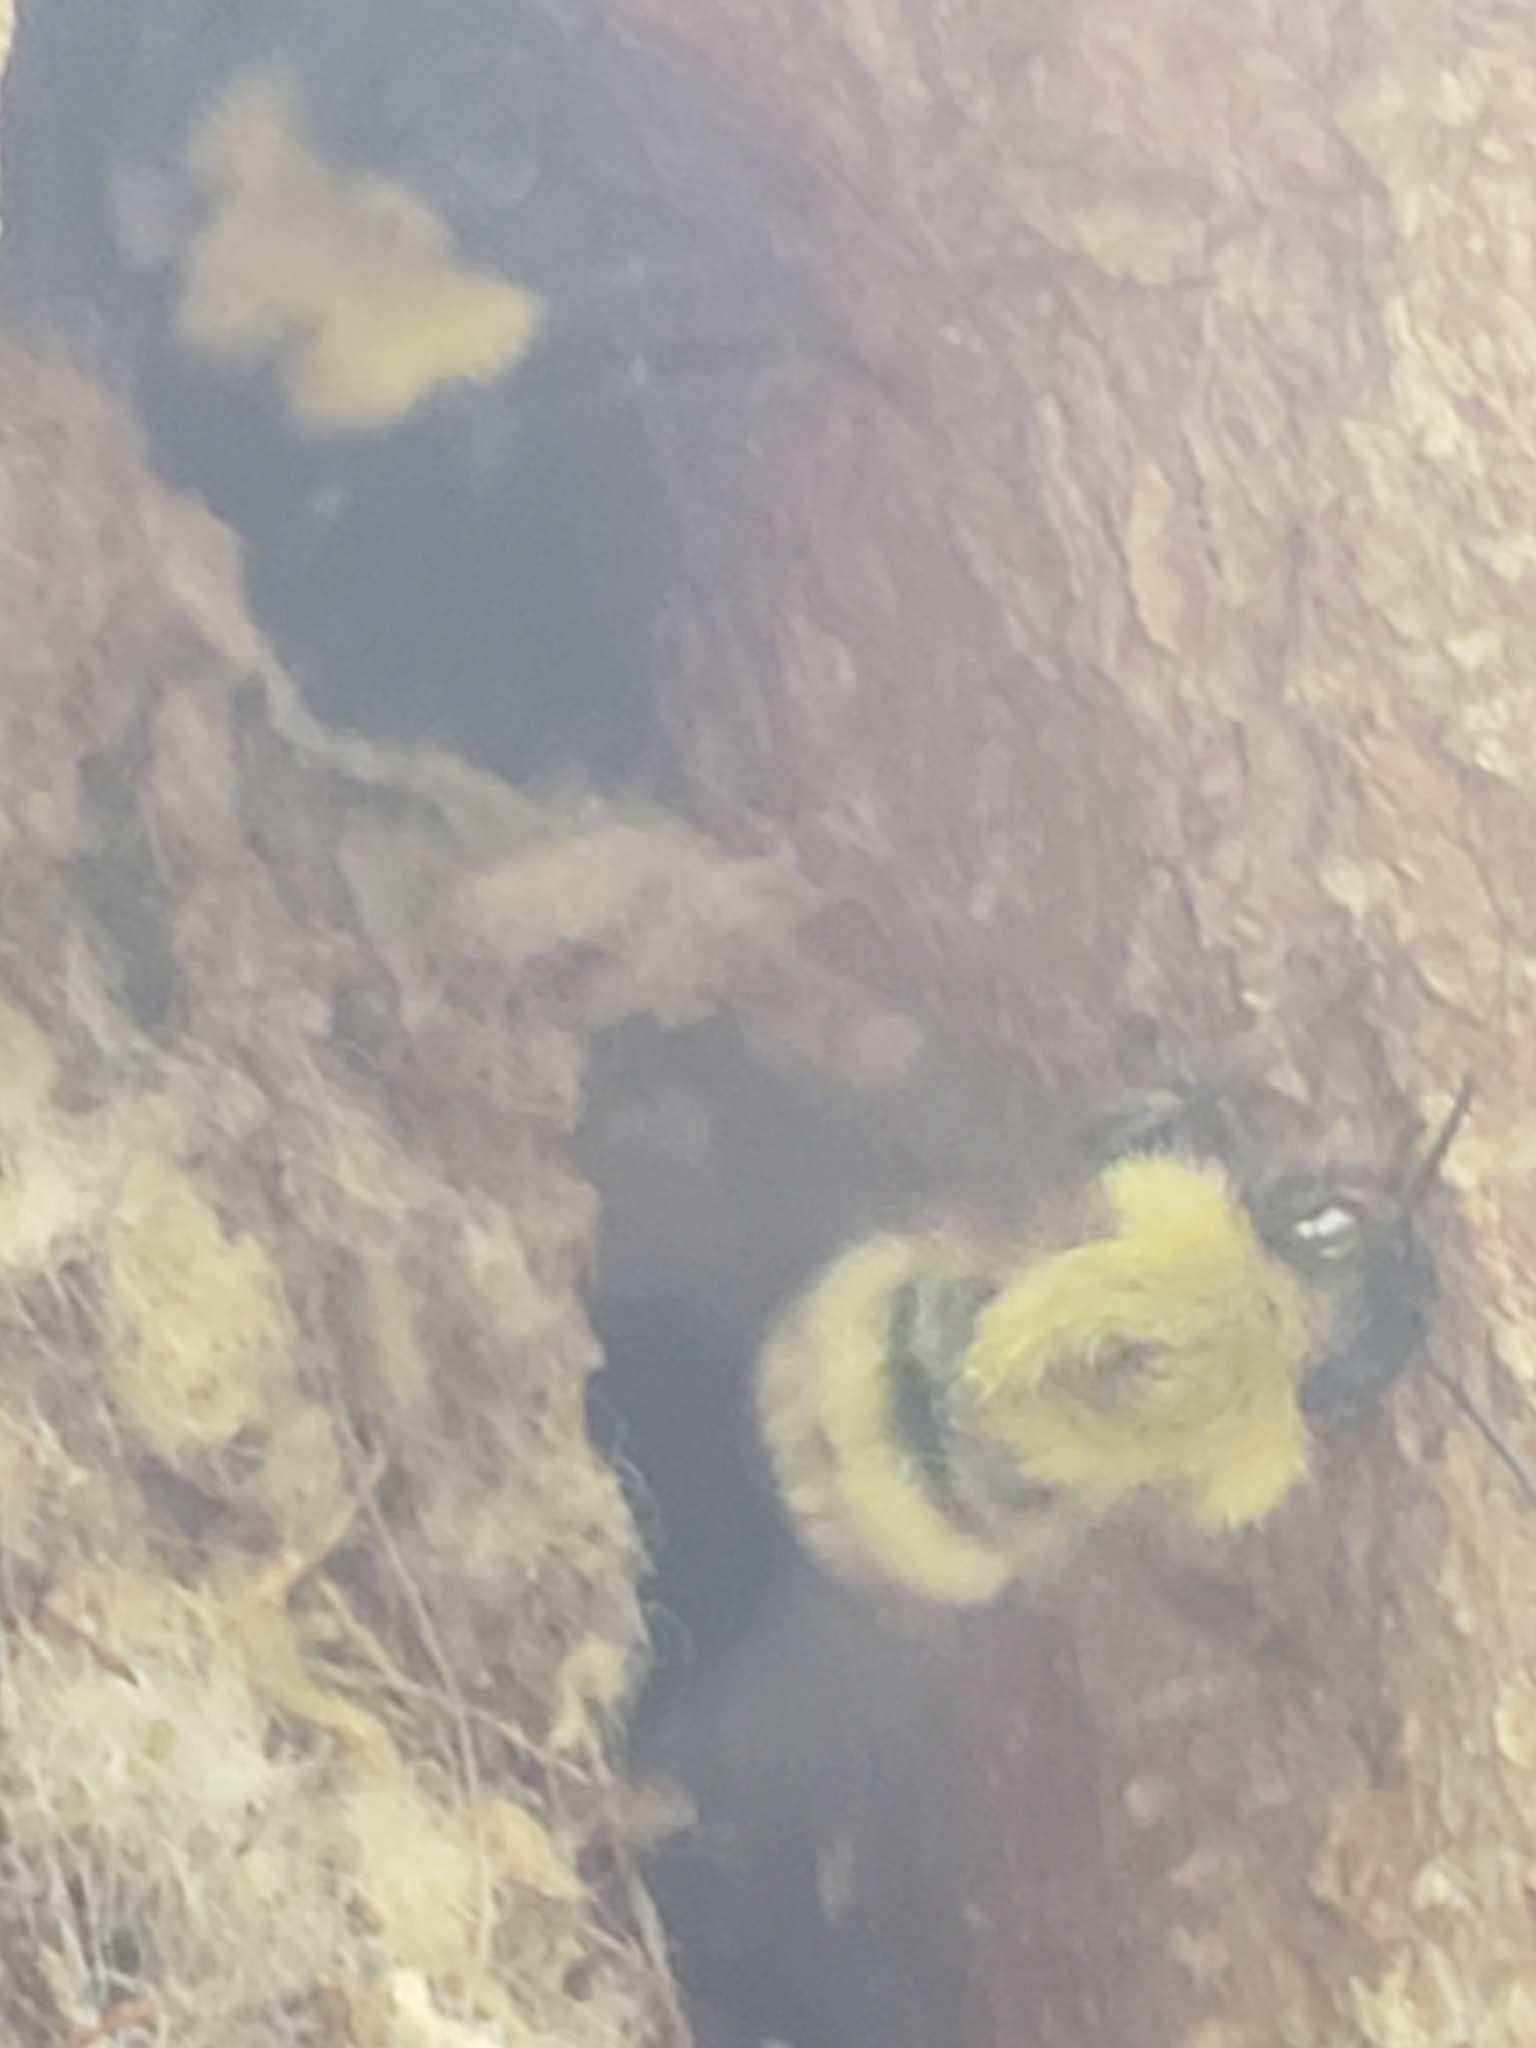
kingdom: Animalia
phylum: Arthropoda
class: Insecta
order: Hymenoptera
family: Apidae
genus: Bombus
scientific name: Bombus perplexus
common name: Confusing bumble bee
